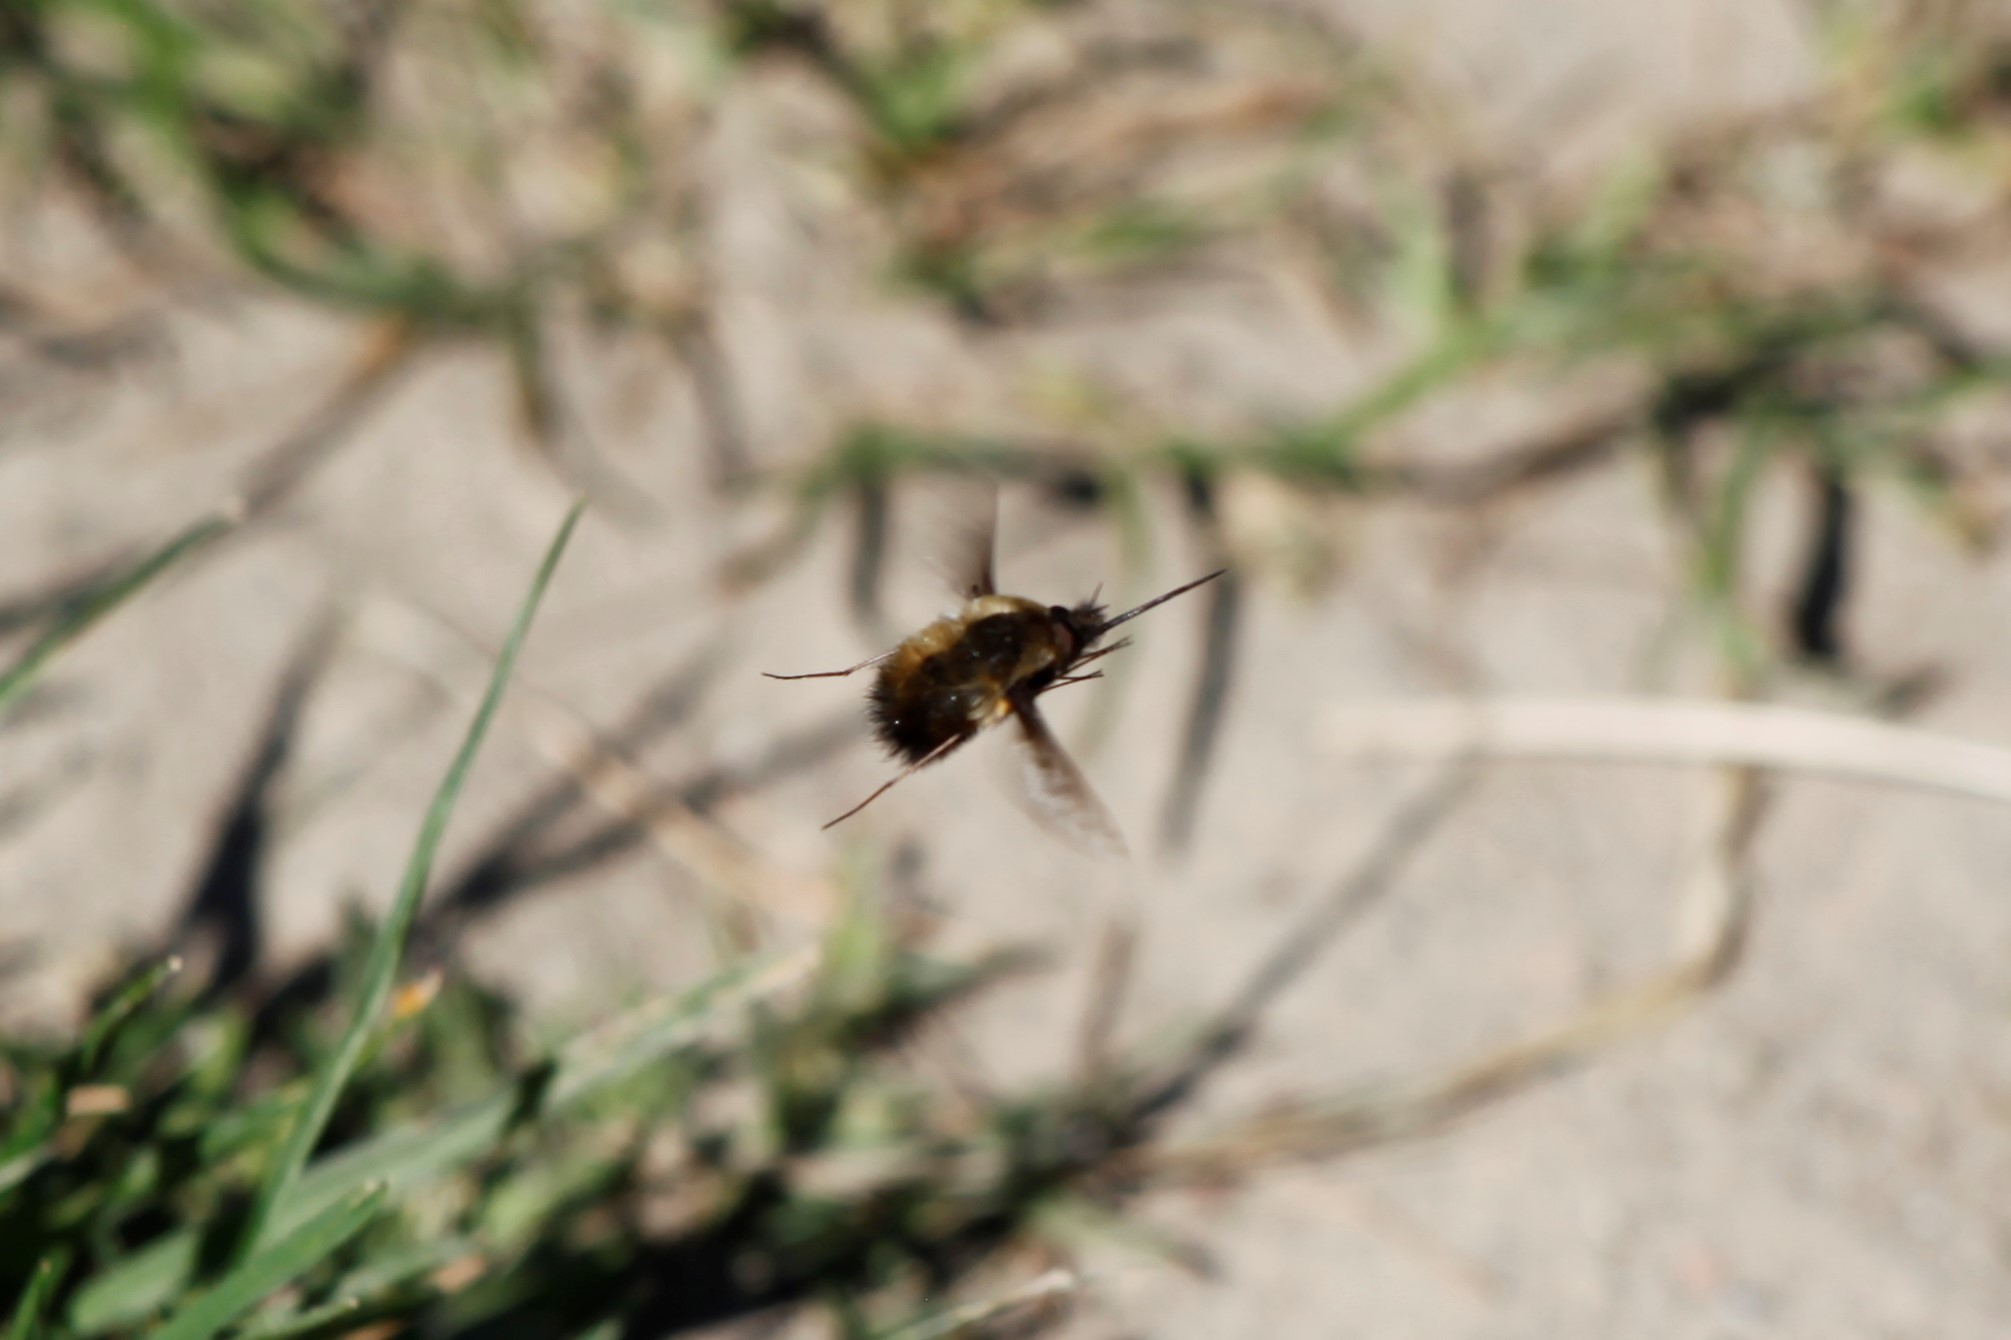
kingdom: Animalia
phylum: Arthropoda
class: Insecta
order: Diptera
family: Bombyliidae
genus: Bombylius
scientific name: Bombylius discolor
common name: Dotted bee-fly
